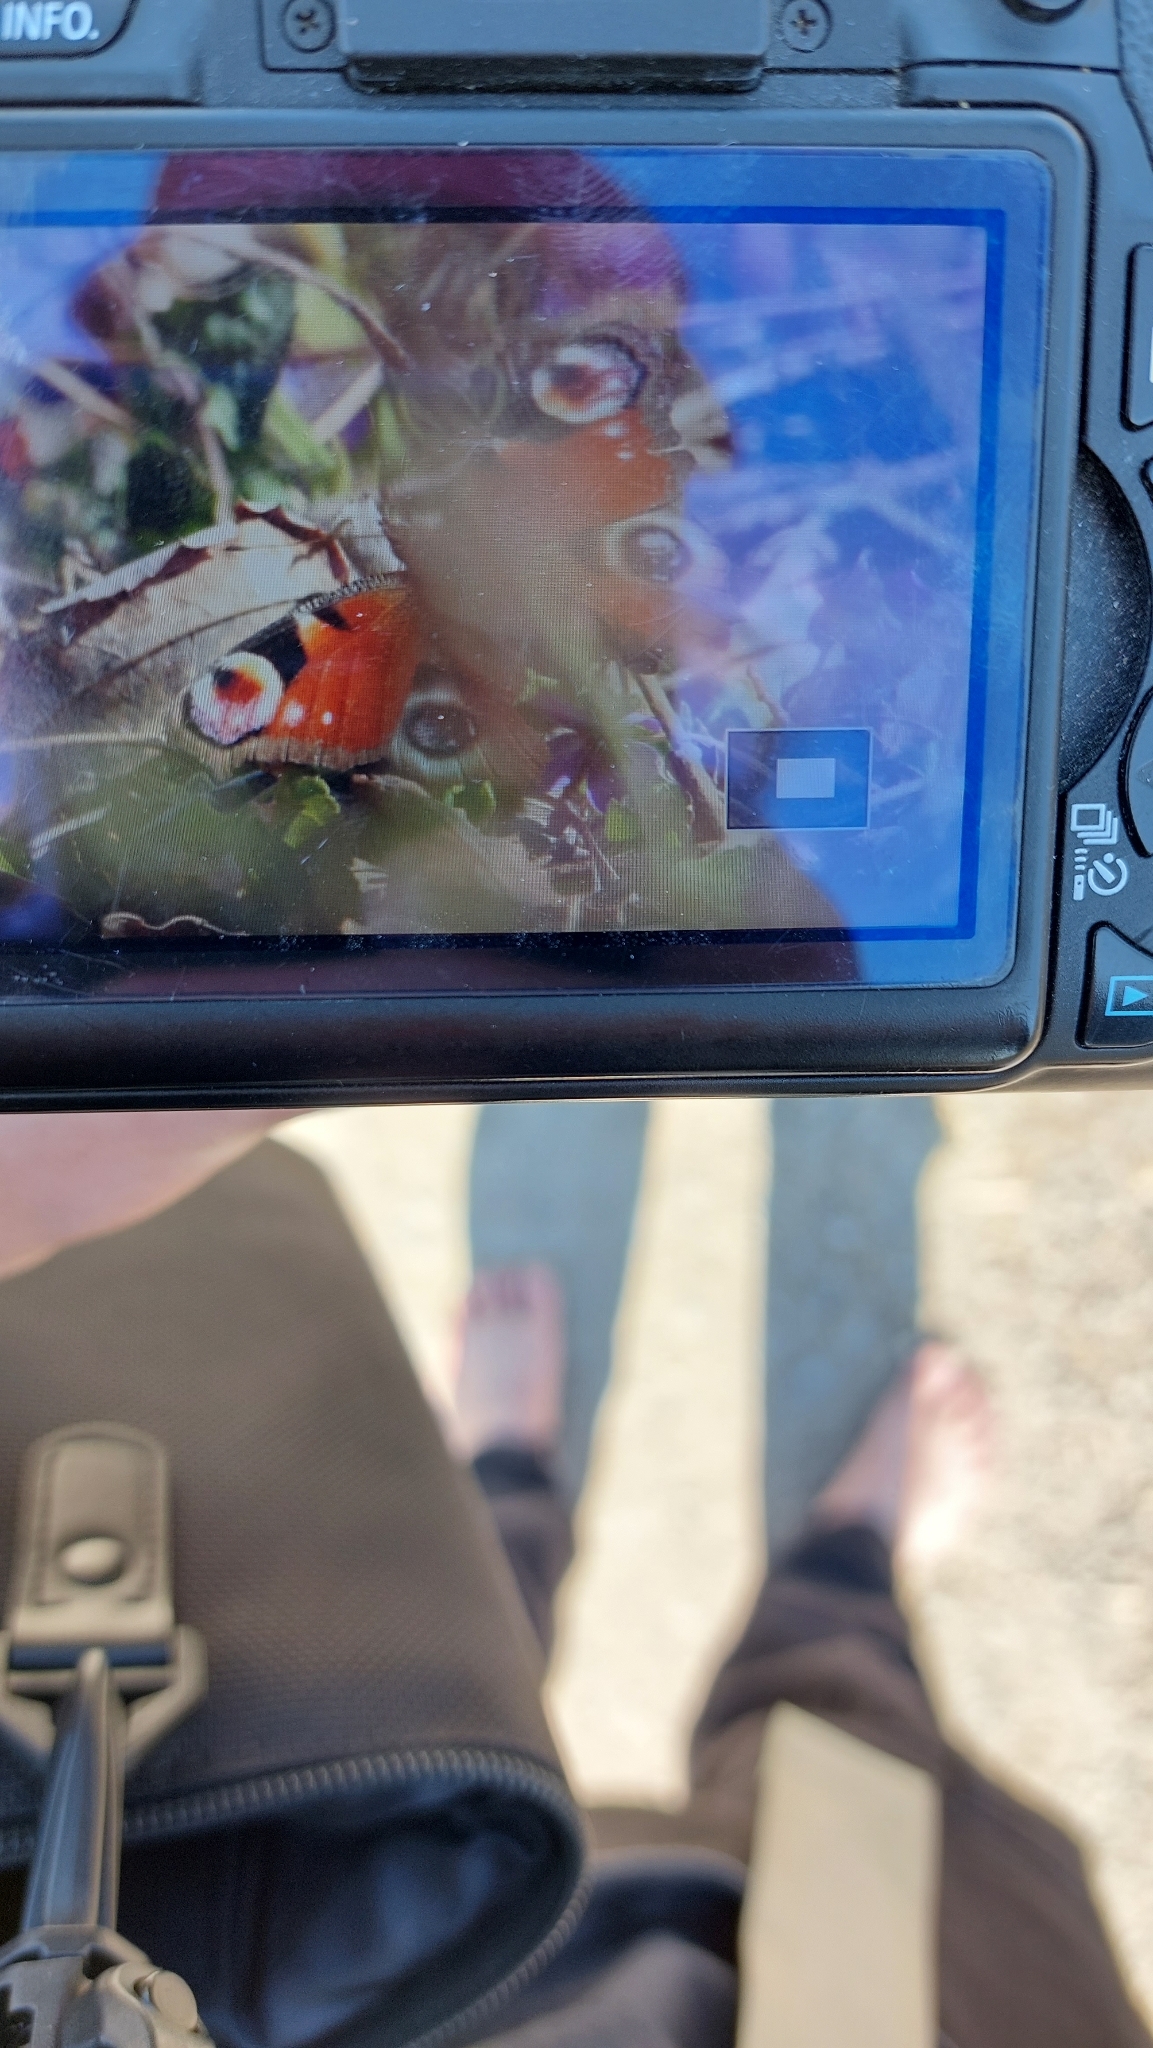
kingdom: Animalia
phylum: Arthropoda
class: Insecta
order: Lepidoptera
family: Nymphalidae
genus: Aglais
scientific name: Aglais io
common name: Peacock
